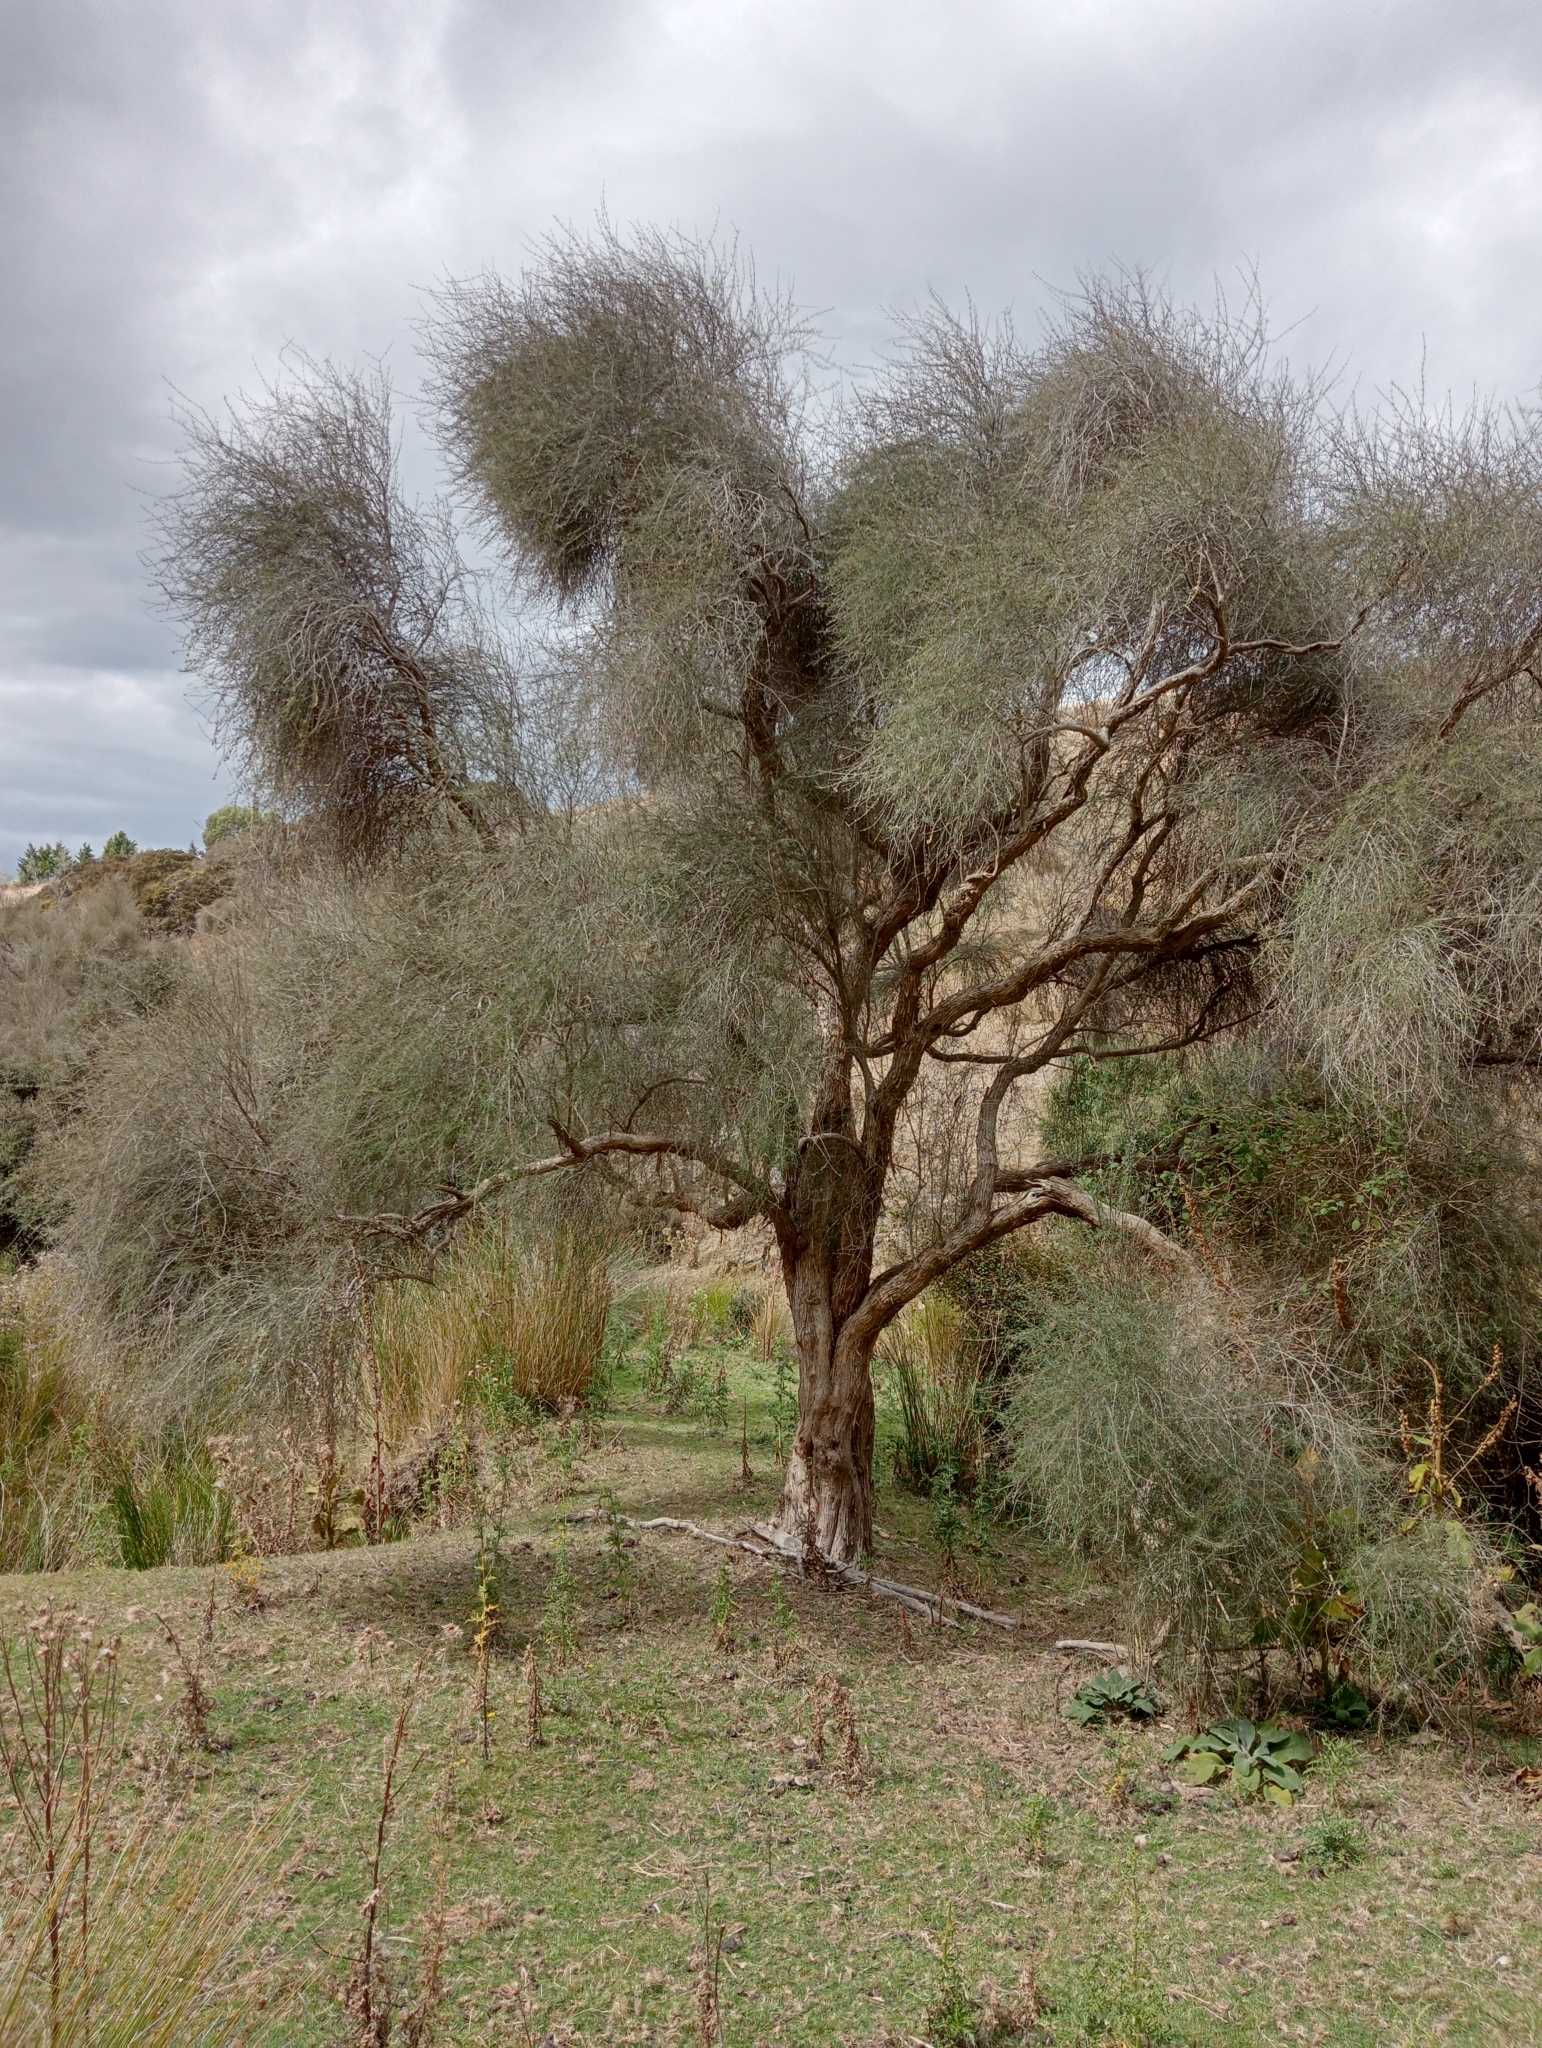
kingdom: Plantae
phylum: Tracheophyta
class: Magnoliopsida
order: Asterales
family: Asteraceae
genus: Olearia
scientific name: Olearia lineata
